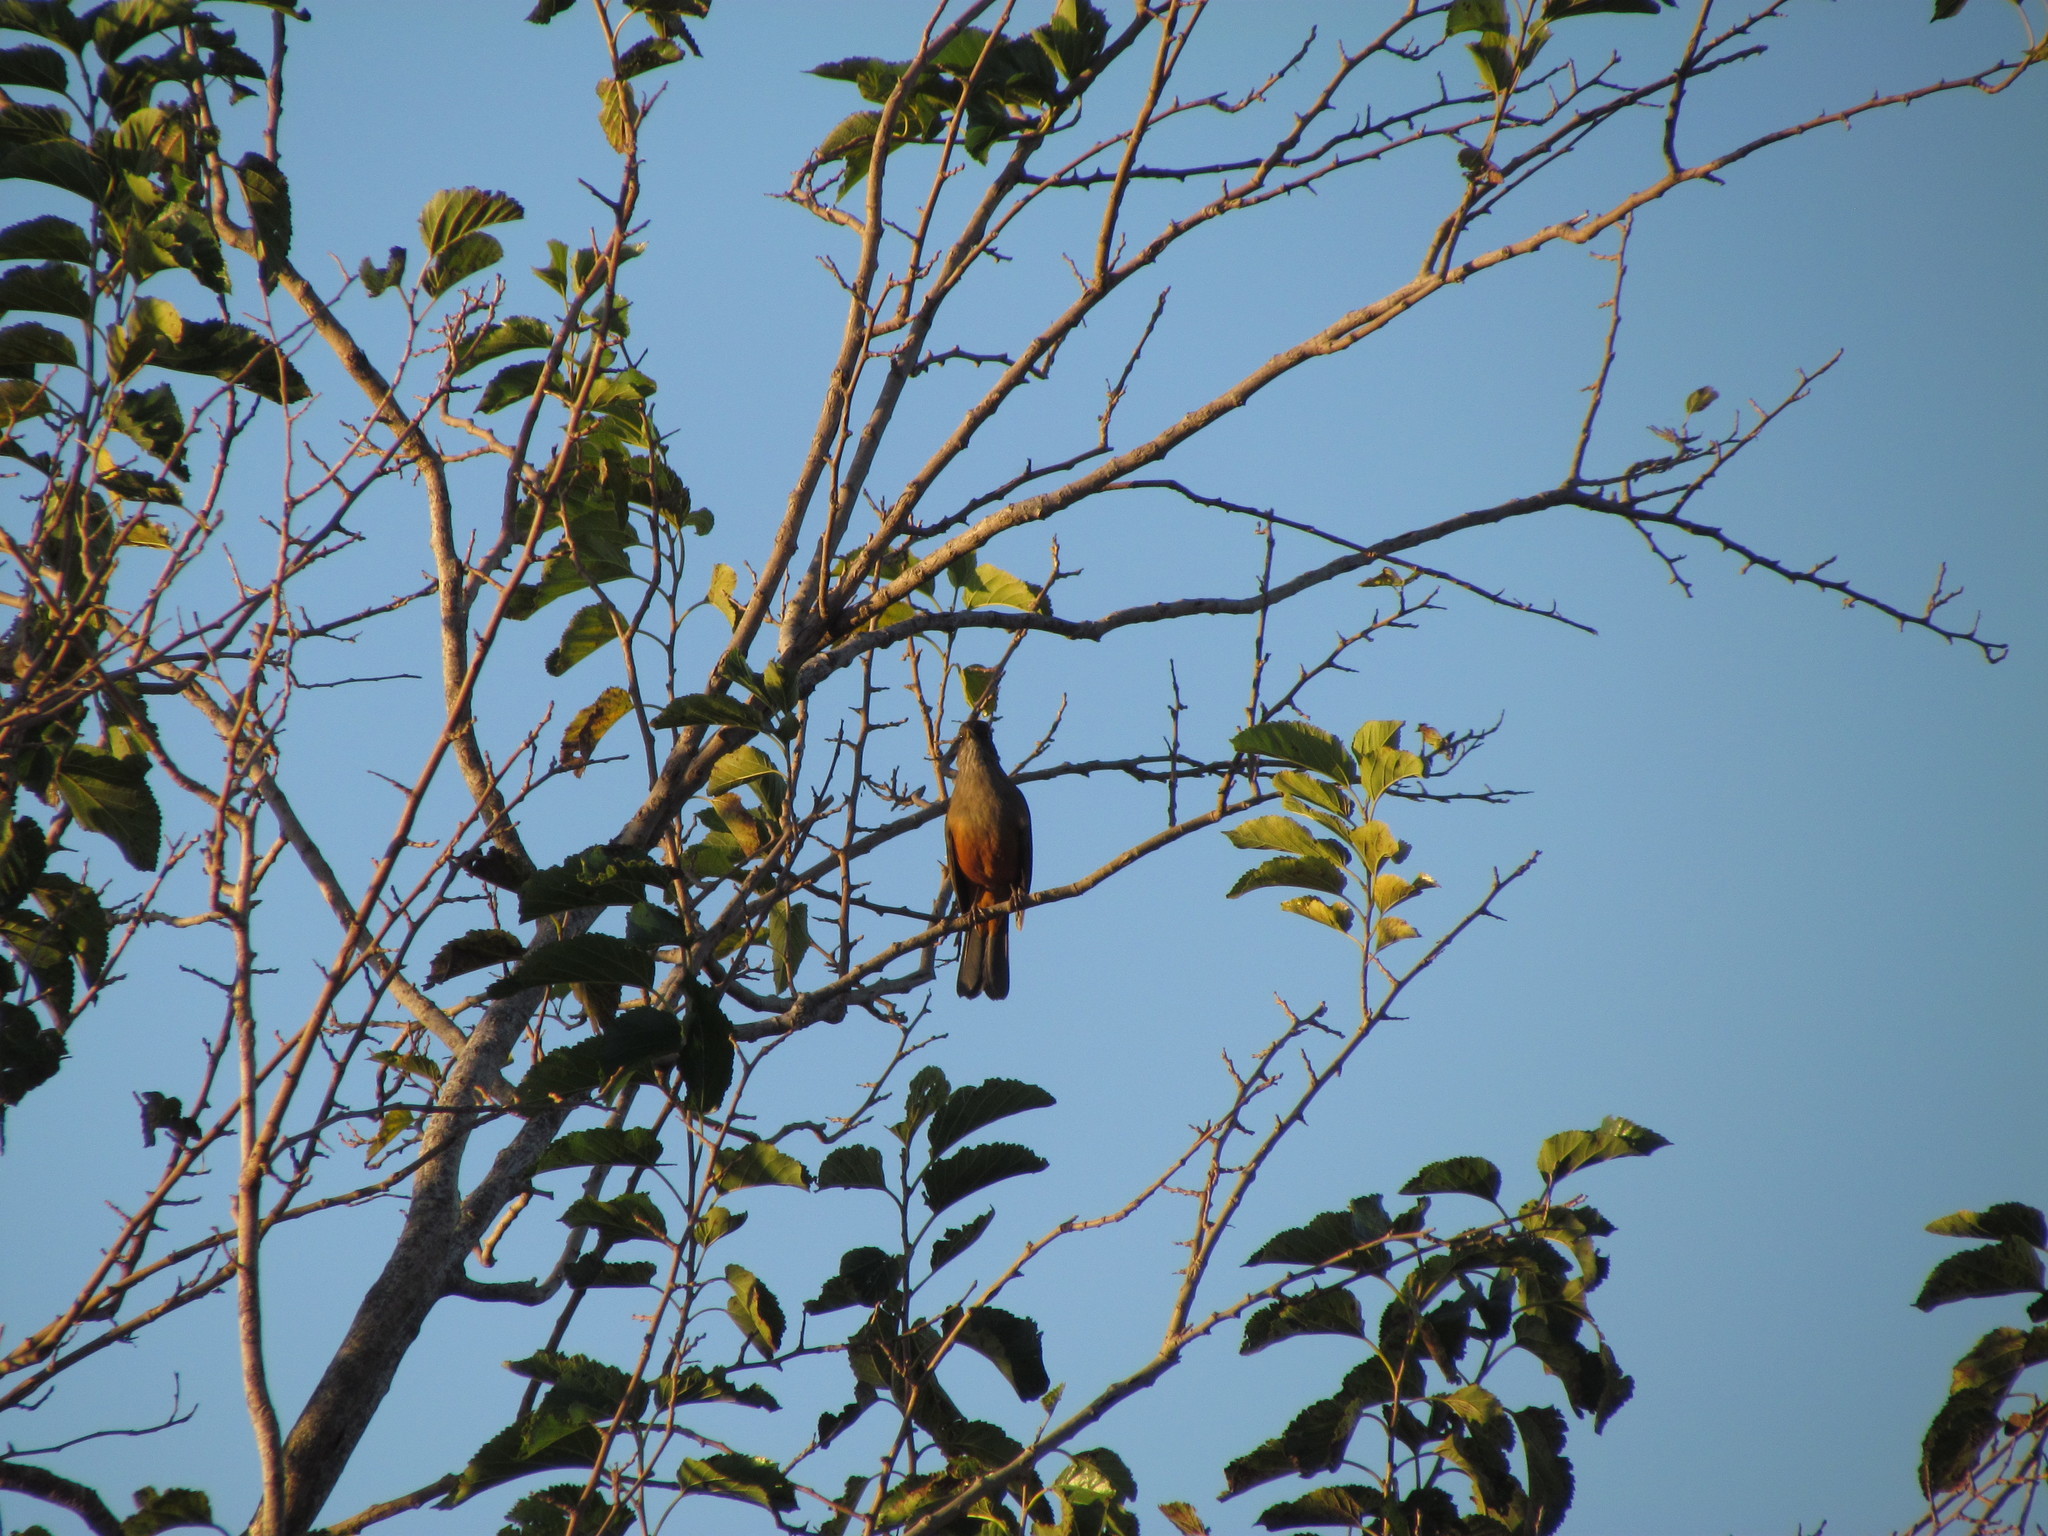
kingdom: Animalia
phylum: Chordata
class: Aves
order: Passeriformes
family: Turdidae
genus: Turdus
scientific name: Turdus rufiventris
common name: Rufous-bellied thrush
